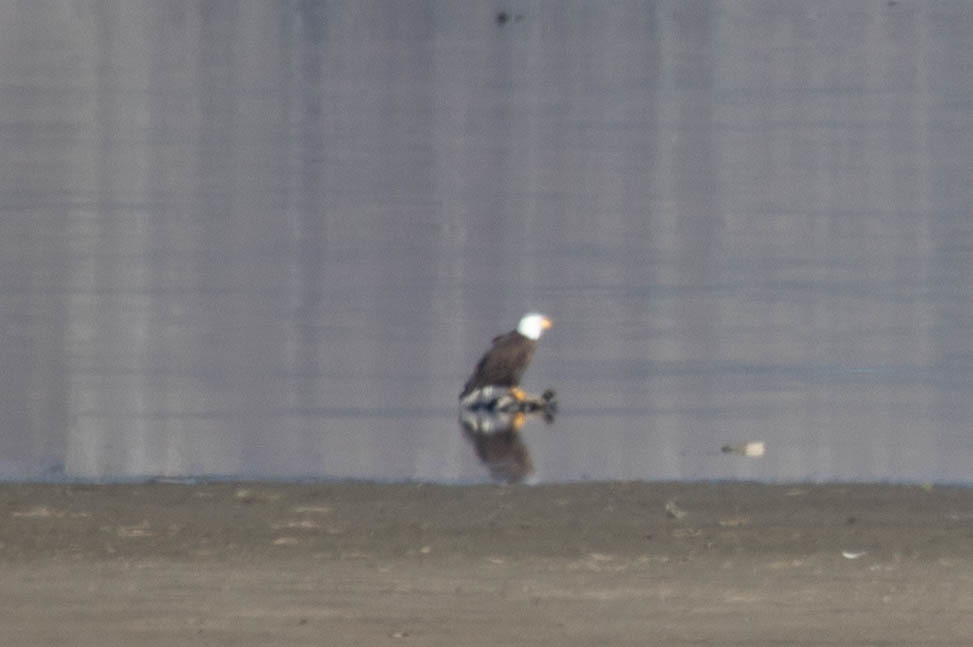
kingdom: Animalia
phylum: Chordata
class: Aves
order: Accipitriformes
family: Accipitridae
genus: Haliaeetus
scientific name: Haliaeetus leucocephalus
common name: Bald eagle
